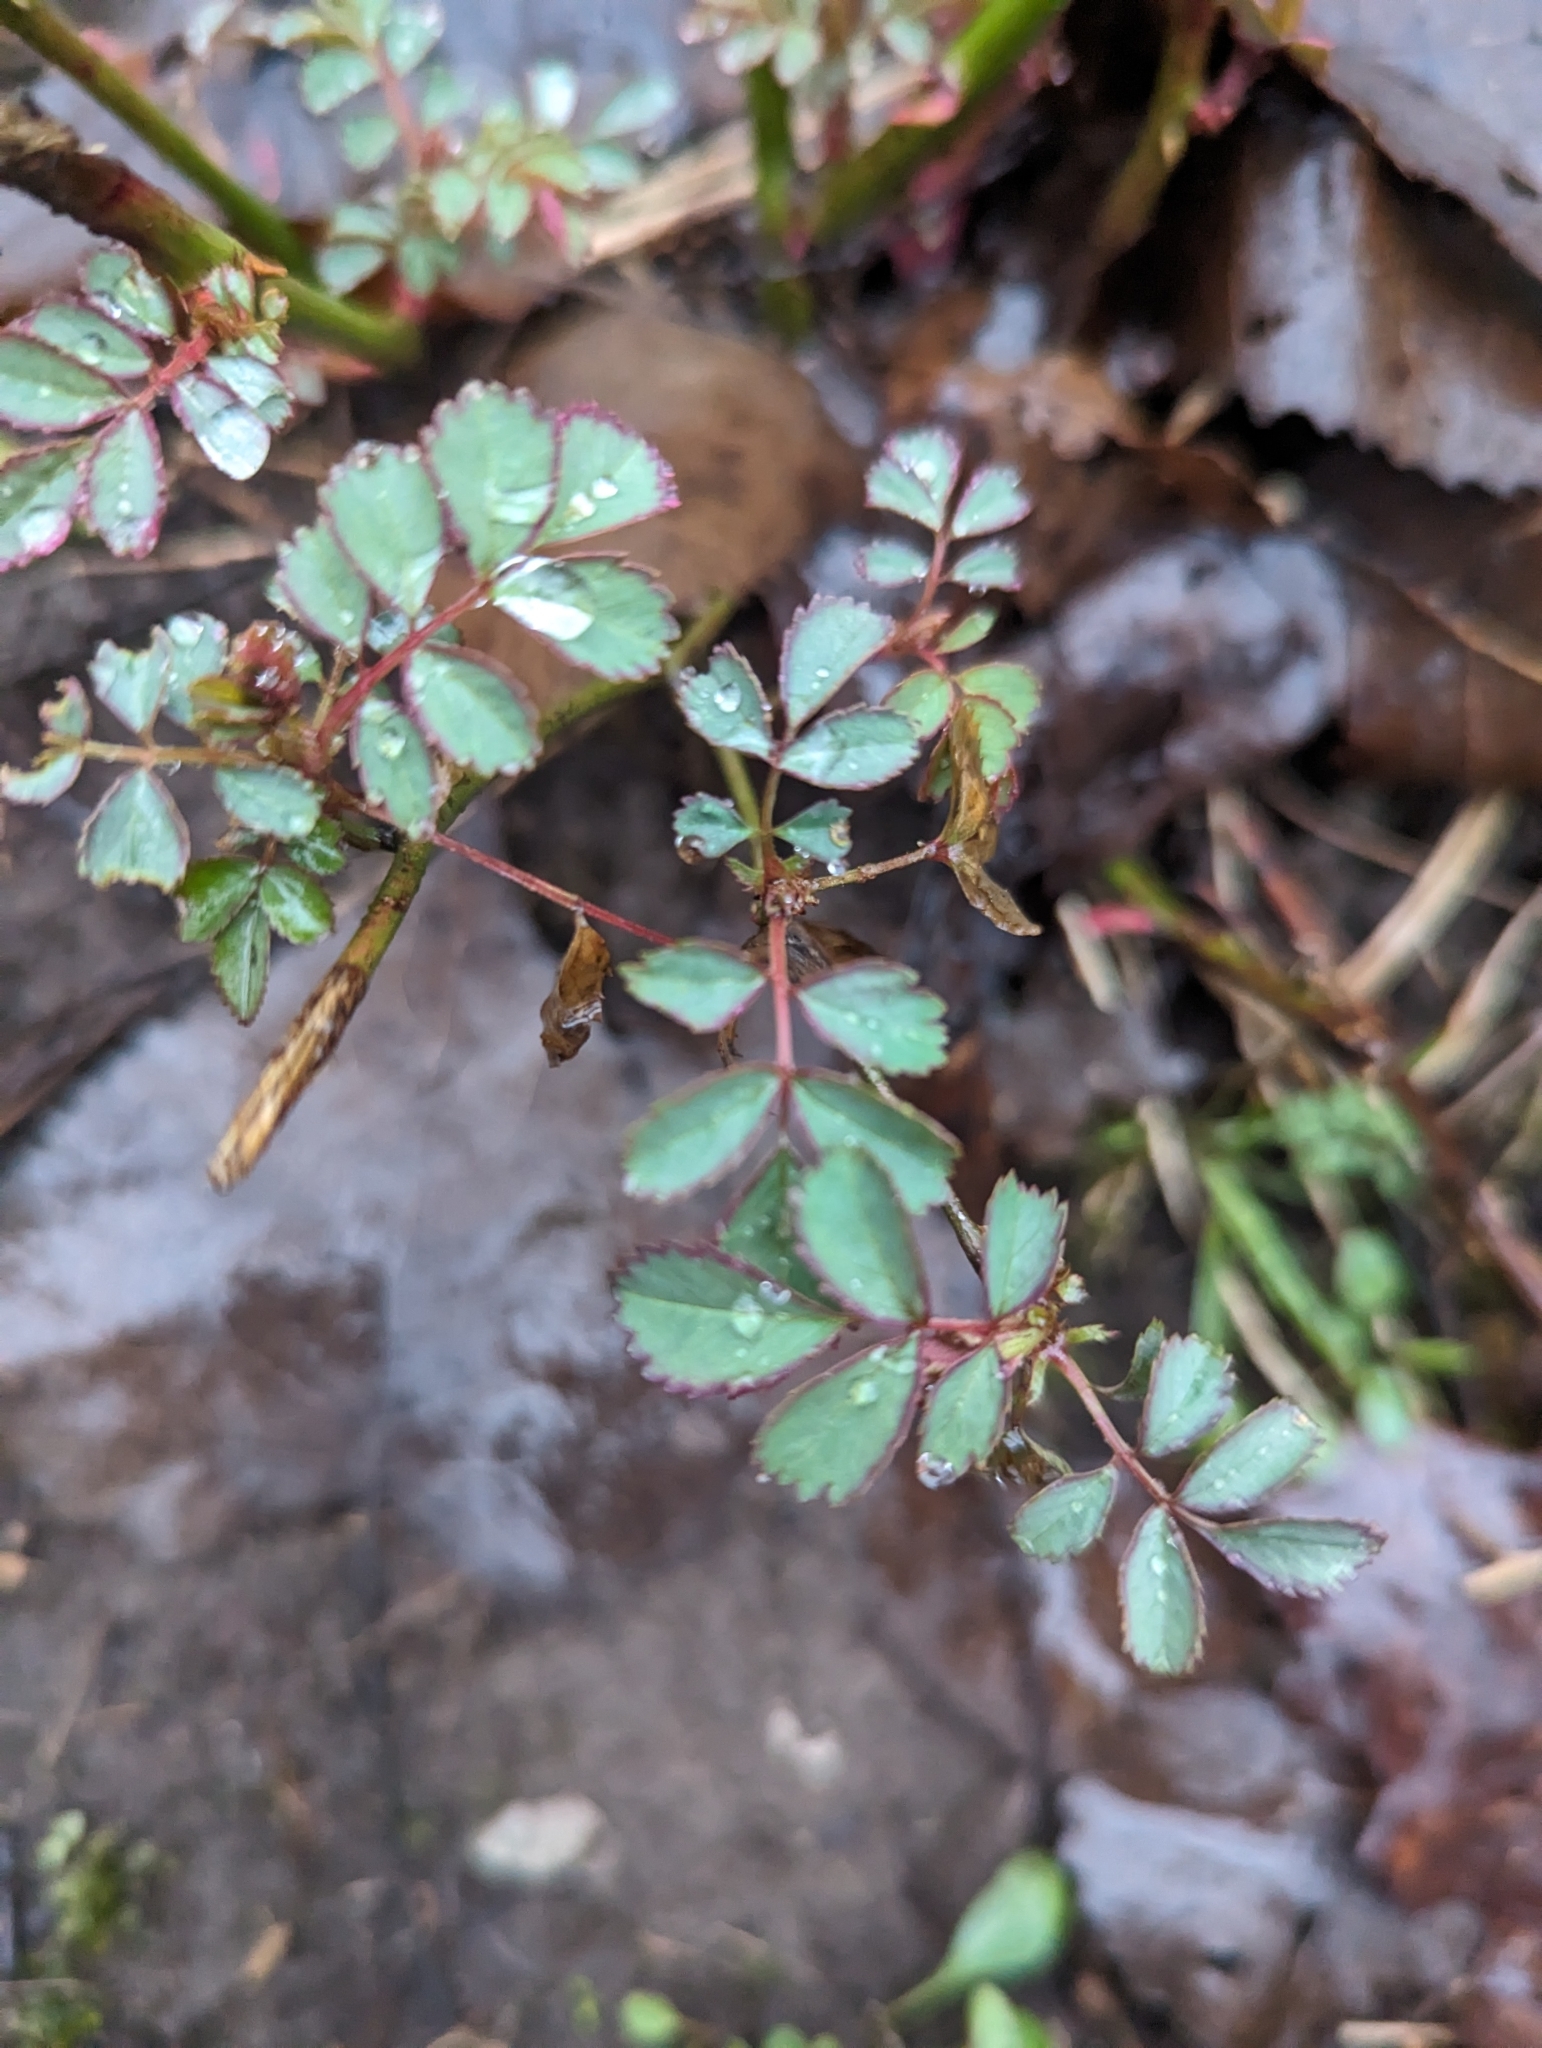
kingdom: Plantae
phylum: Tracheophyta
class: Magnoliopsida
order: Rosales
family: Rosaceae
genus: Rosa
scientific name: Rosa multiflora
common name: Multiflora rose
